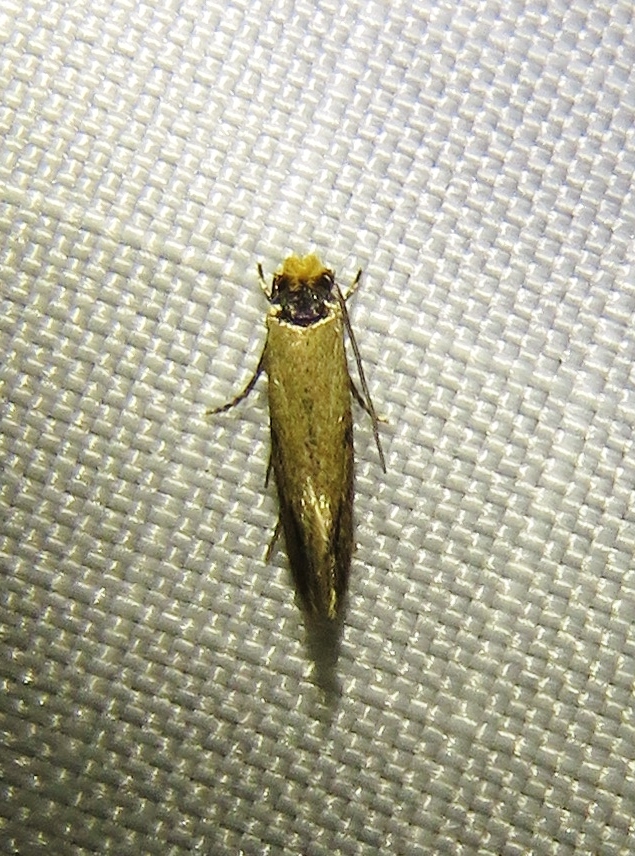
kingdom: Animalia
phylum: Arthropoda
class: Insecta
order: Lepidoptera
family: Meessiidae
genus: Homostinea
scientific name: Homostinea curviliniella
